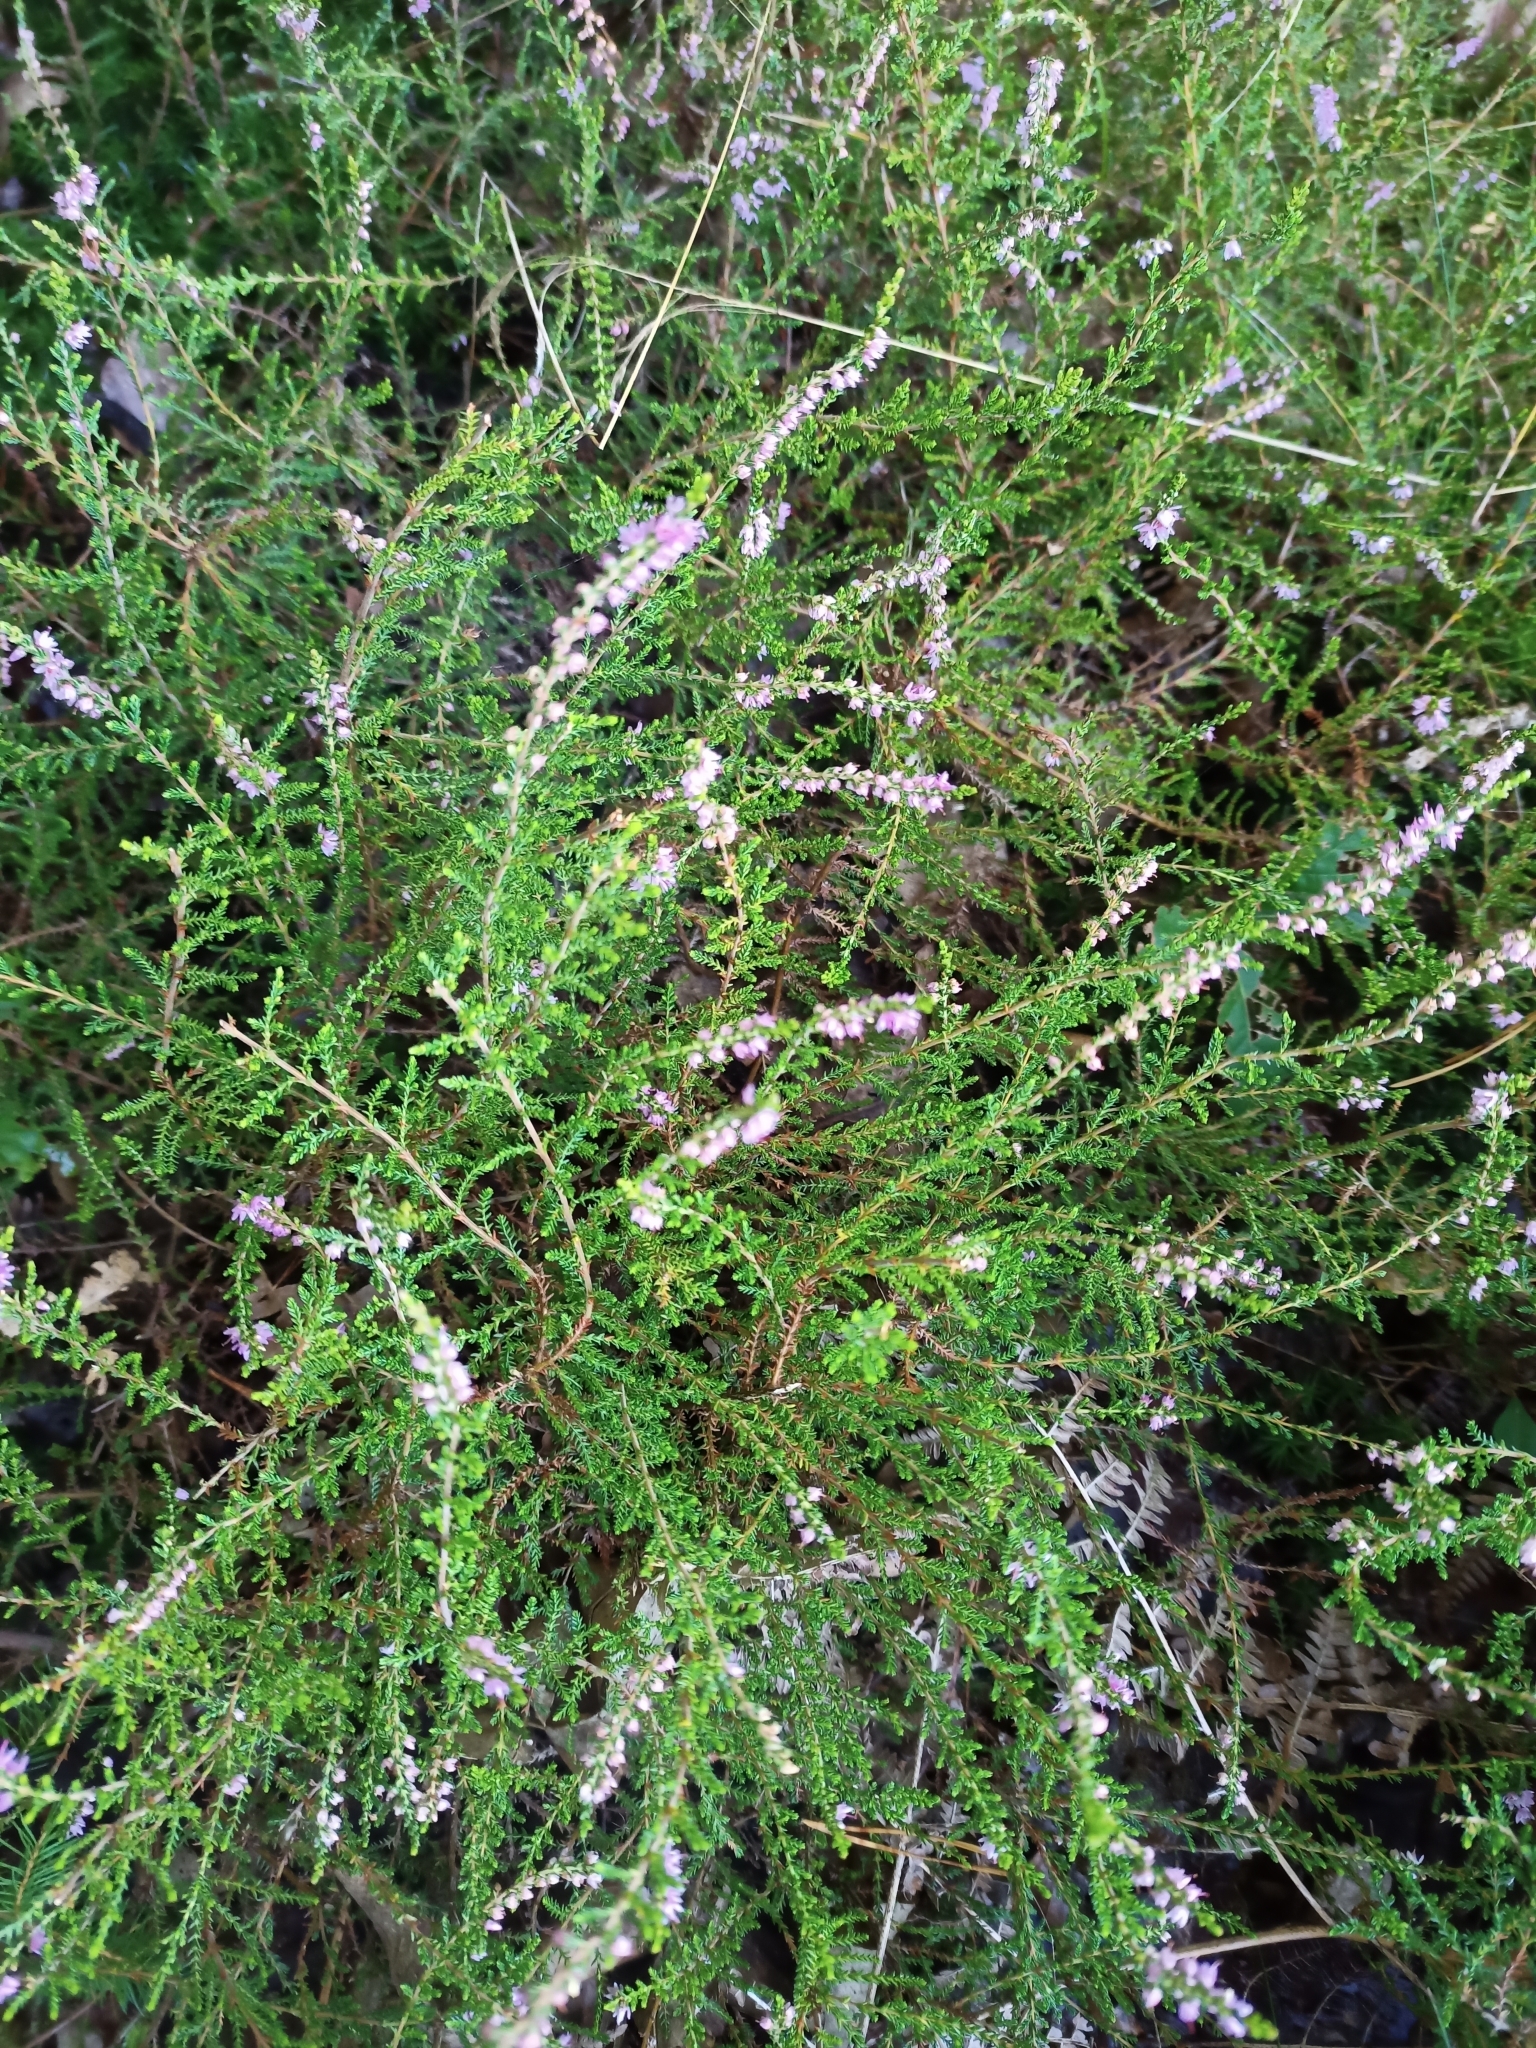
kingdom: Plantae
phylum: Tracheophyta
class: Magnoliopsida
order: Ericales
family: Ericaceae
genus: Calluna
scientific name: Calluna vulgaris
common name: Heather
